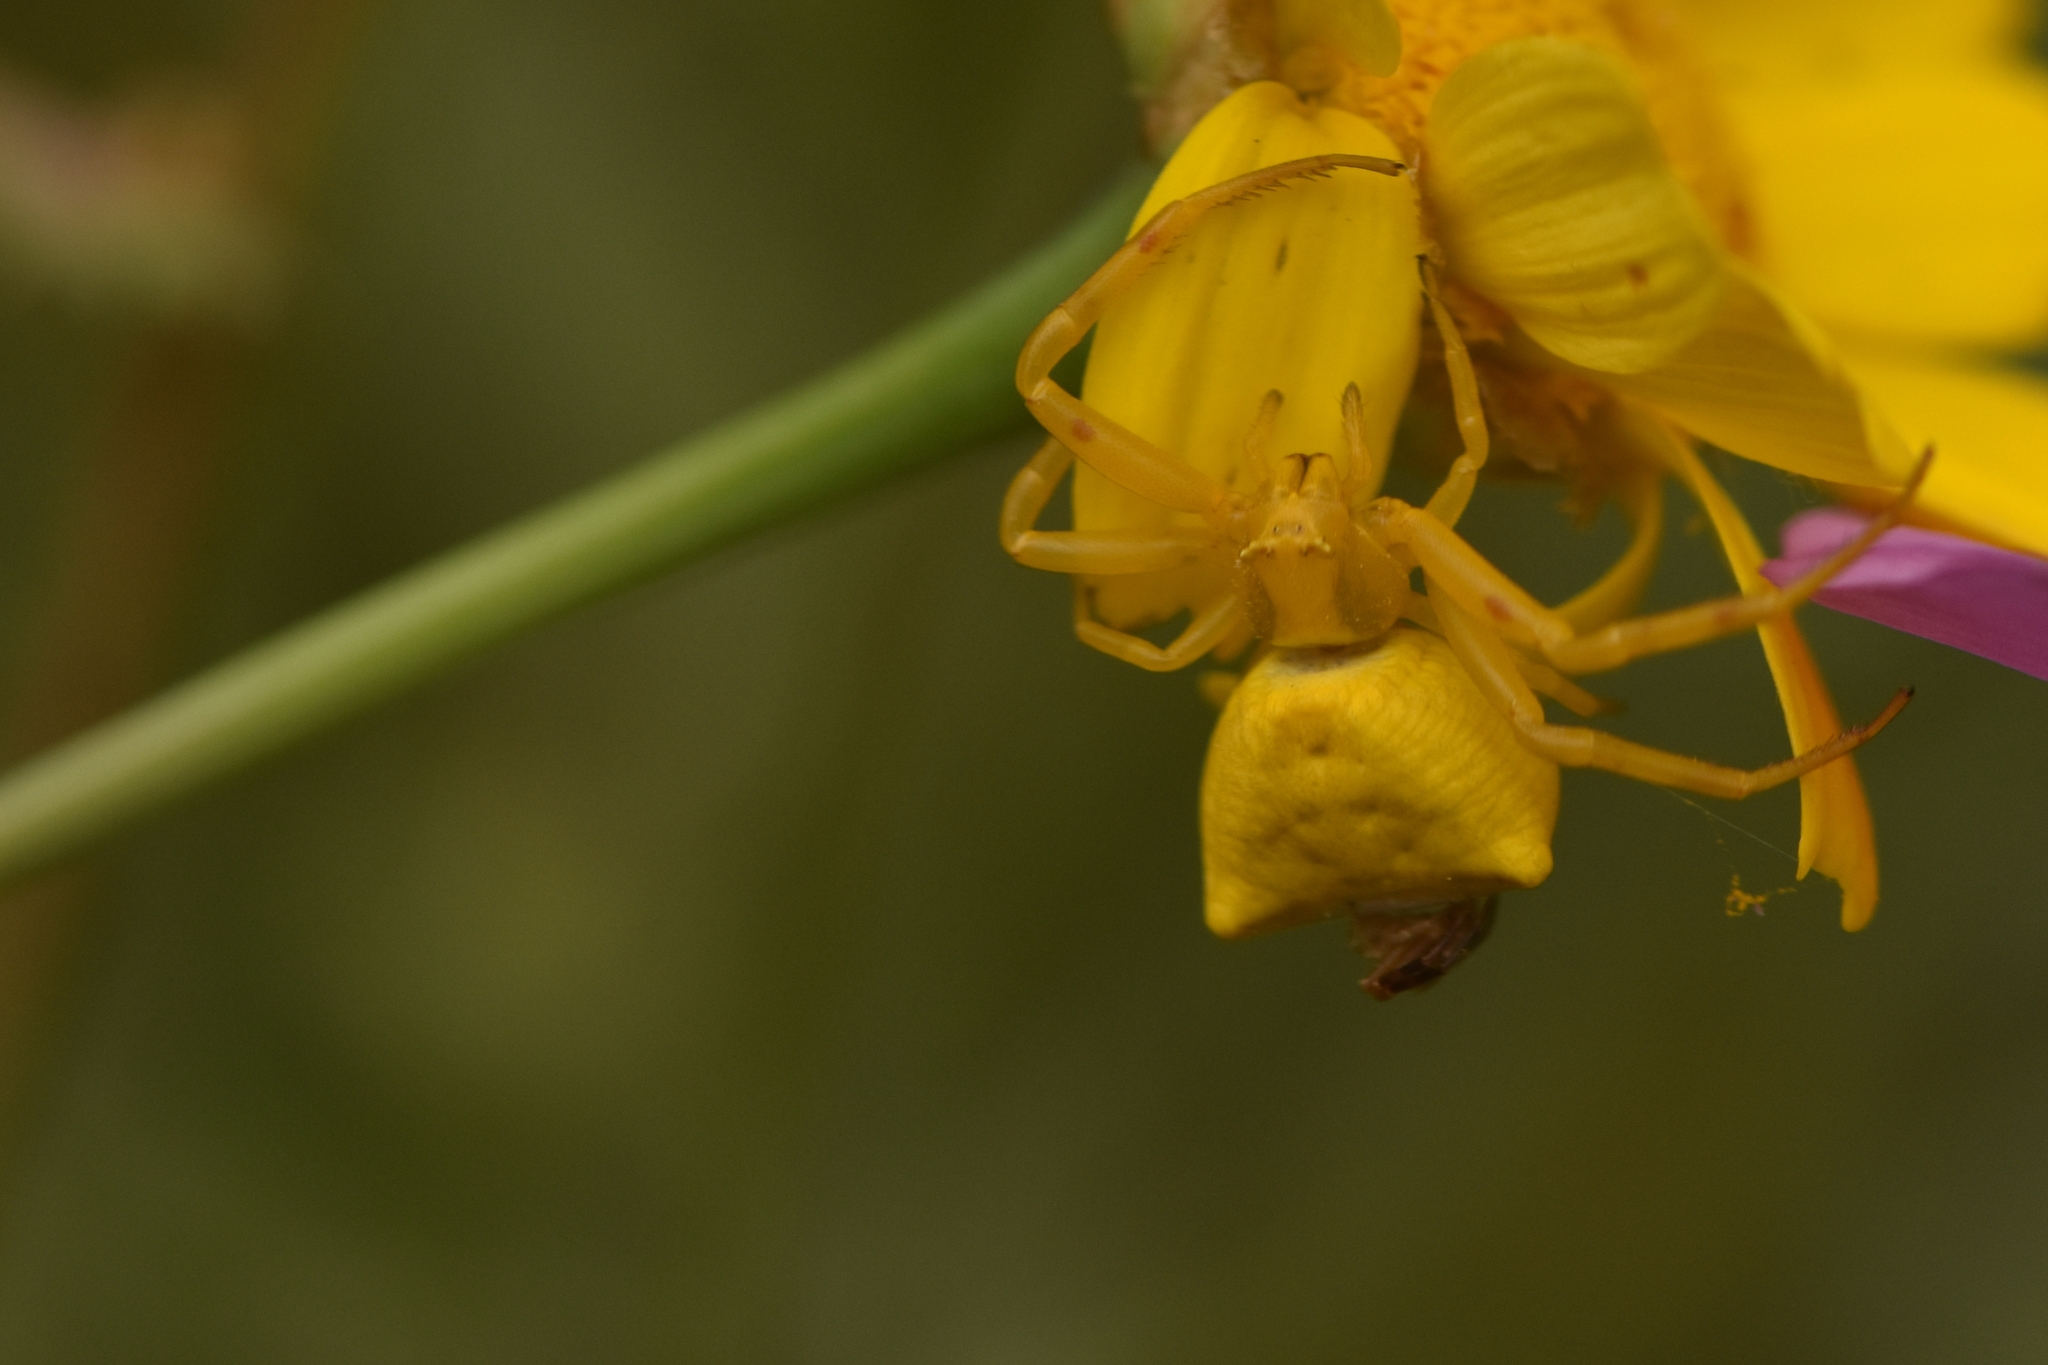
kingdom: Animalia
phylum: Arthropoda
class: Arachnida
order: Araneae
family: Thomisidae
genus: Thomisus
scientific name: Thomisus onustus
